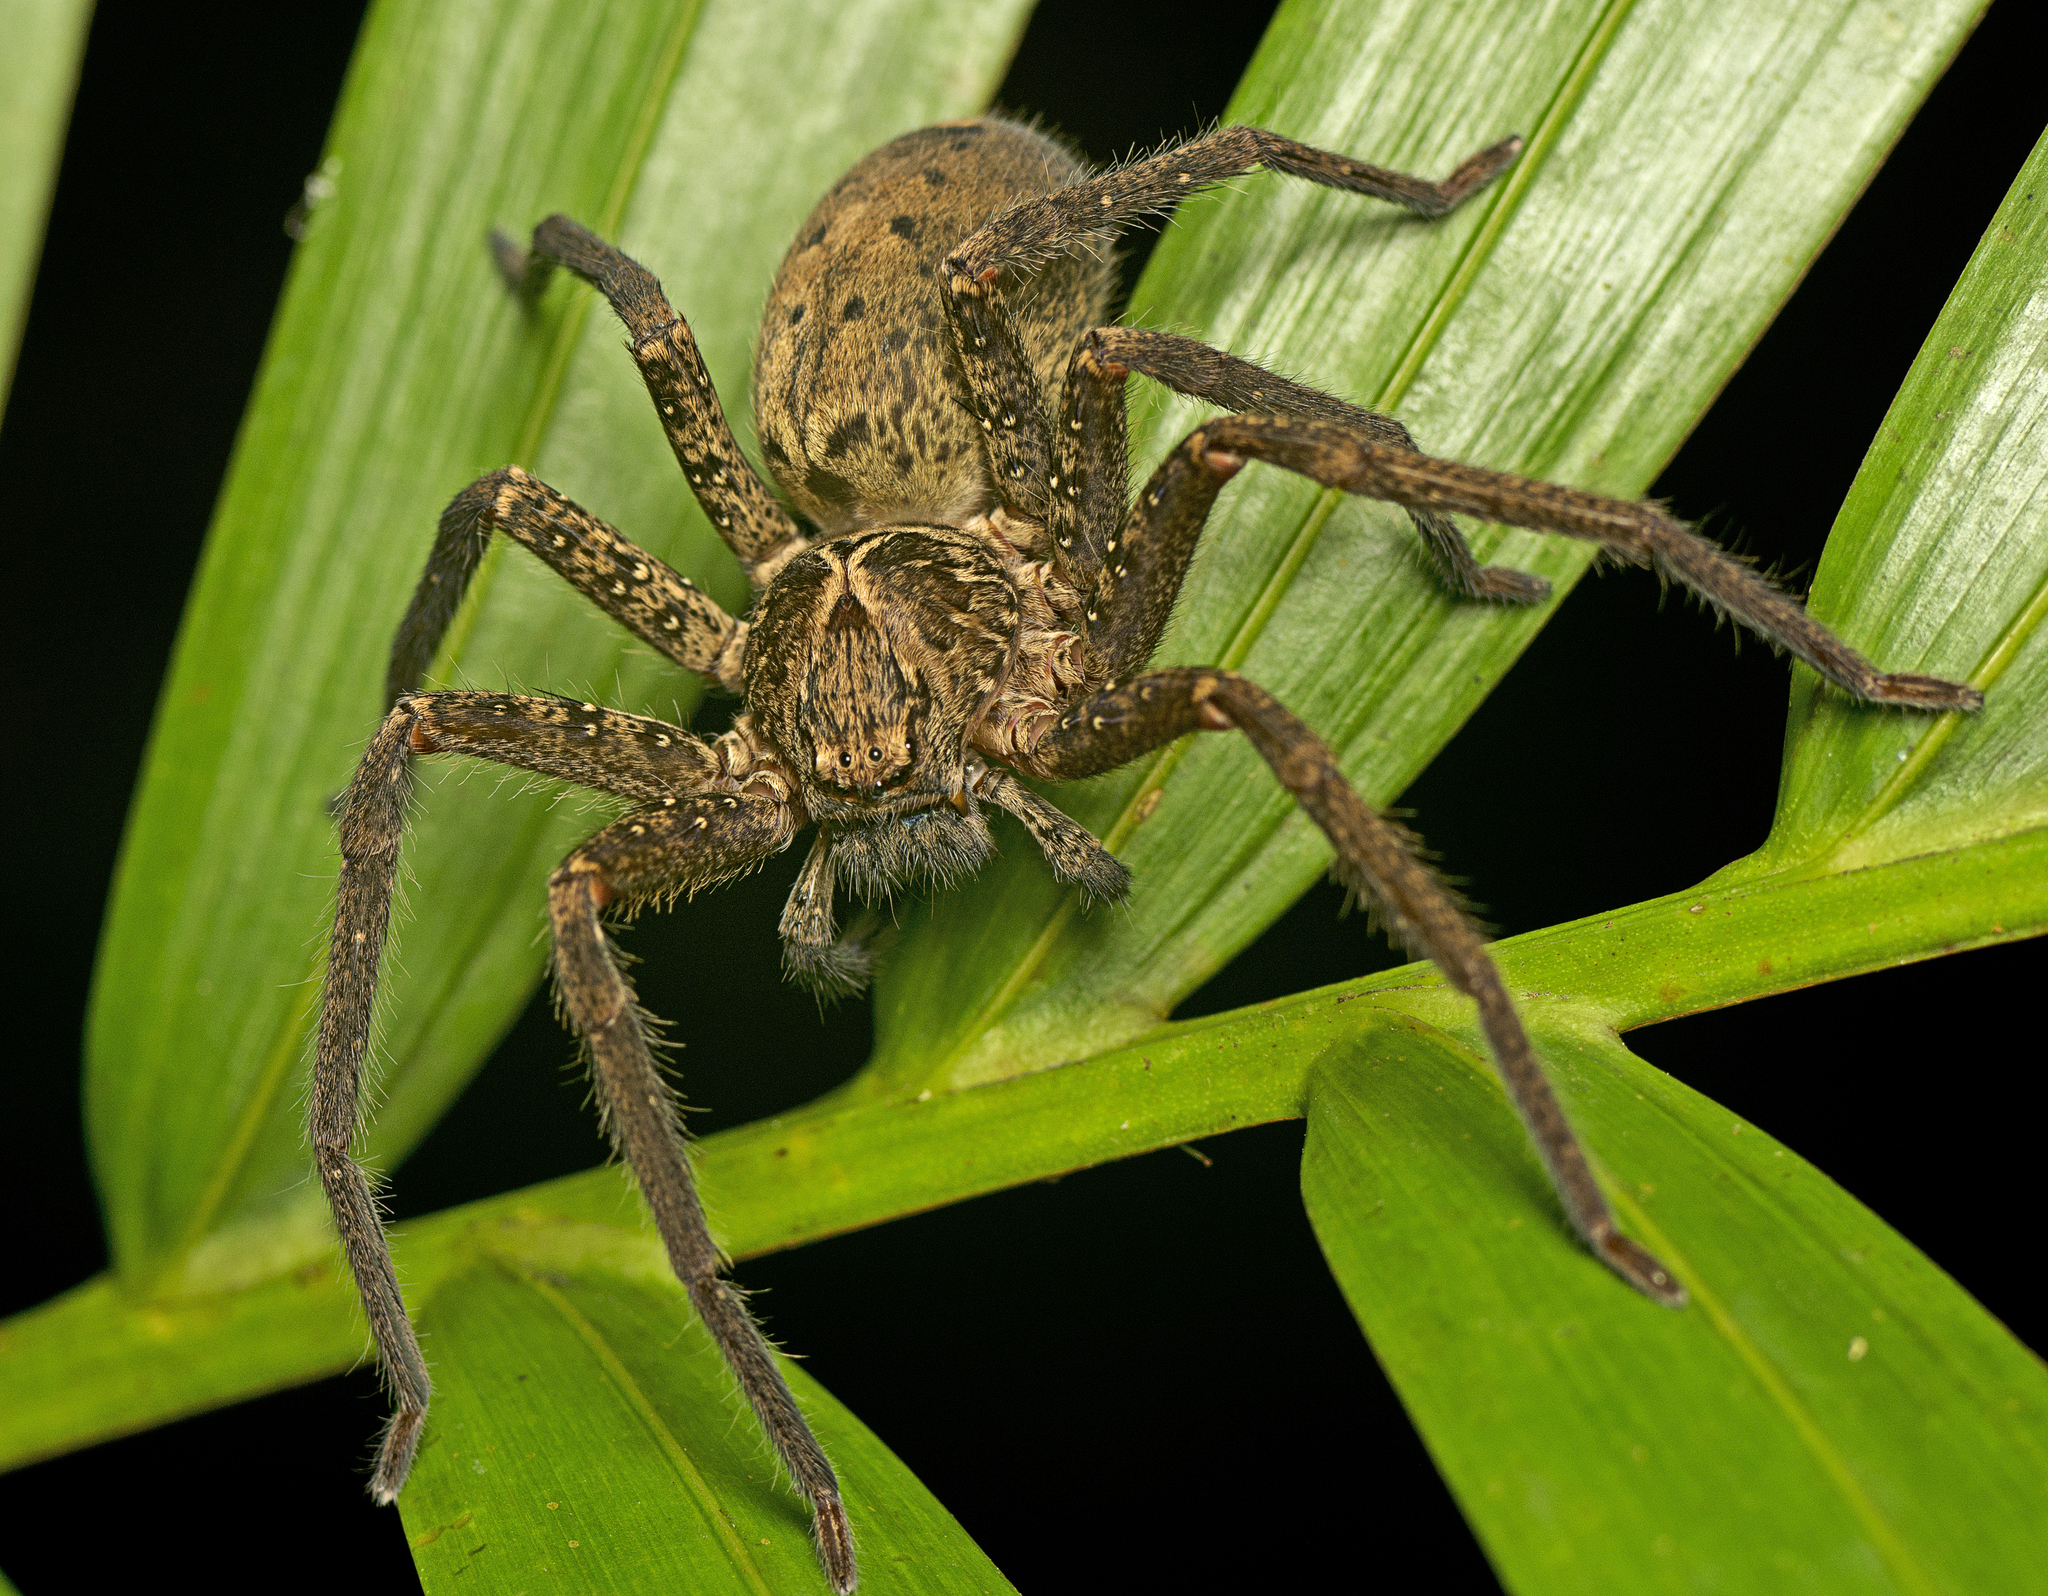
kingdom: Animalia
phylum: Arthropoda
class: Arachnida
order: Araneae
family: Sparassidae
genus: Heteropoda
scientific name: Heteropoda hillerae
